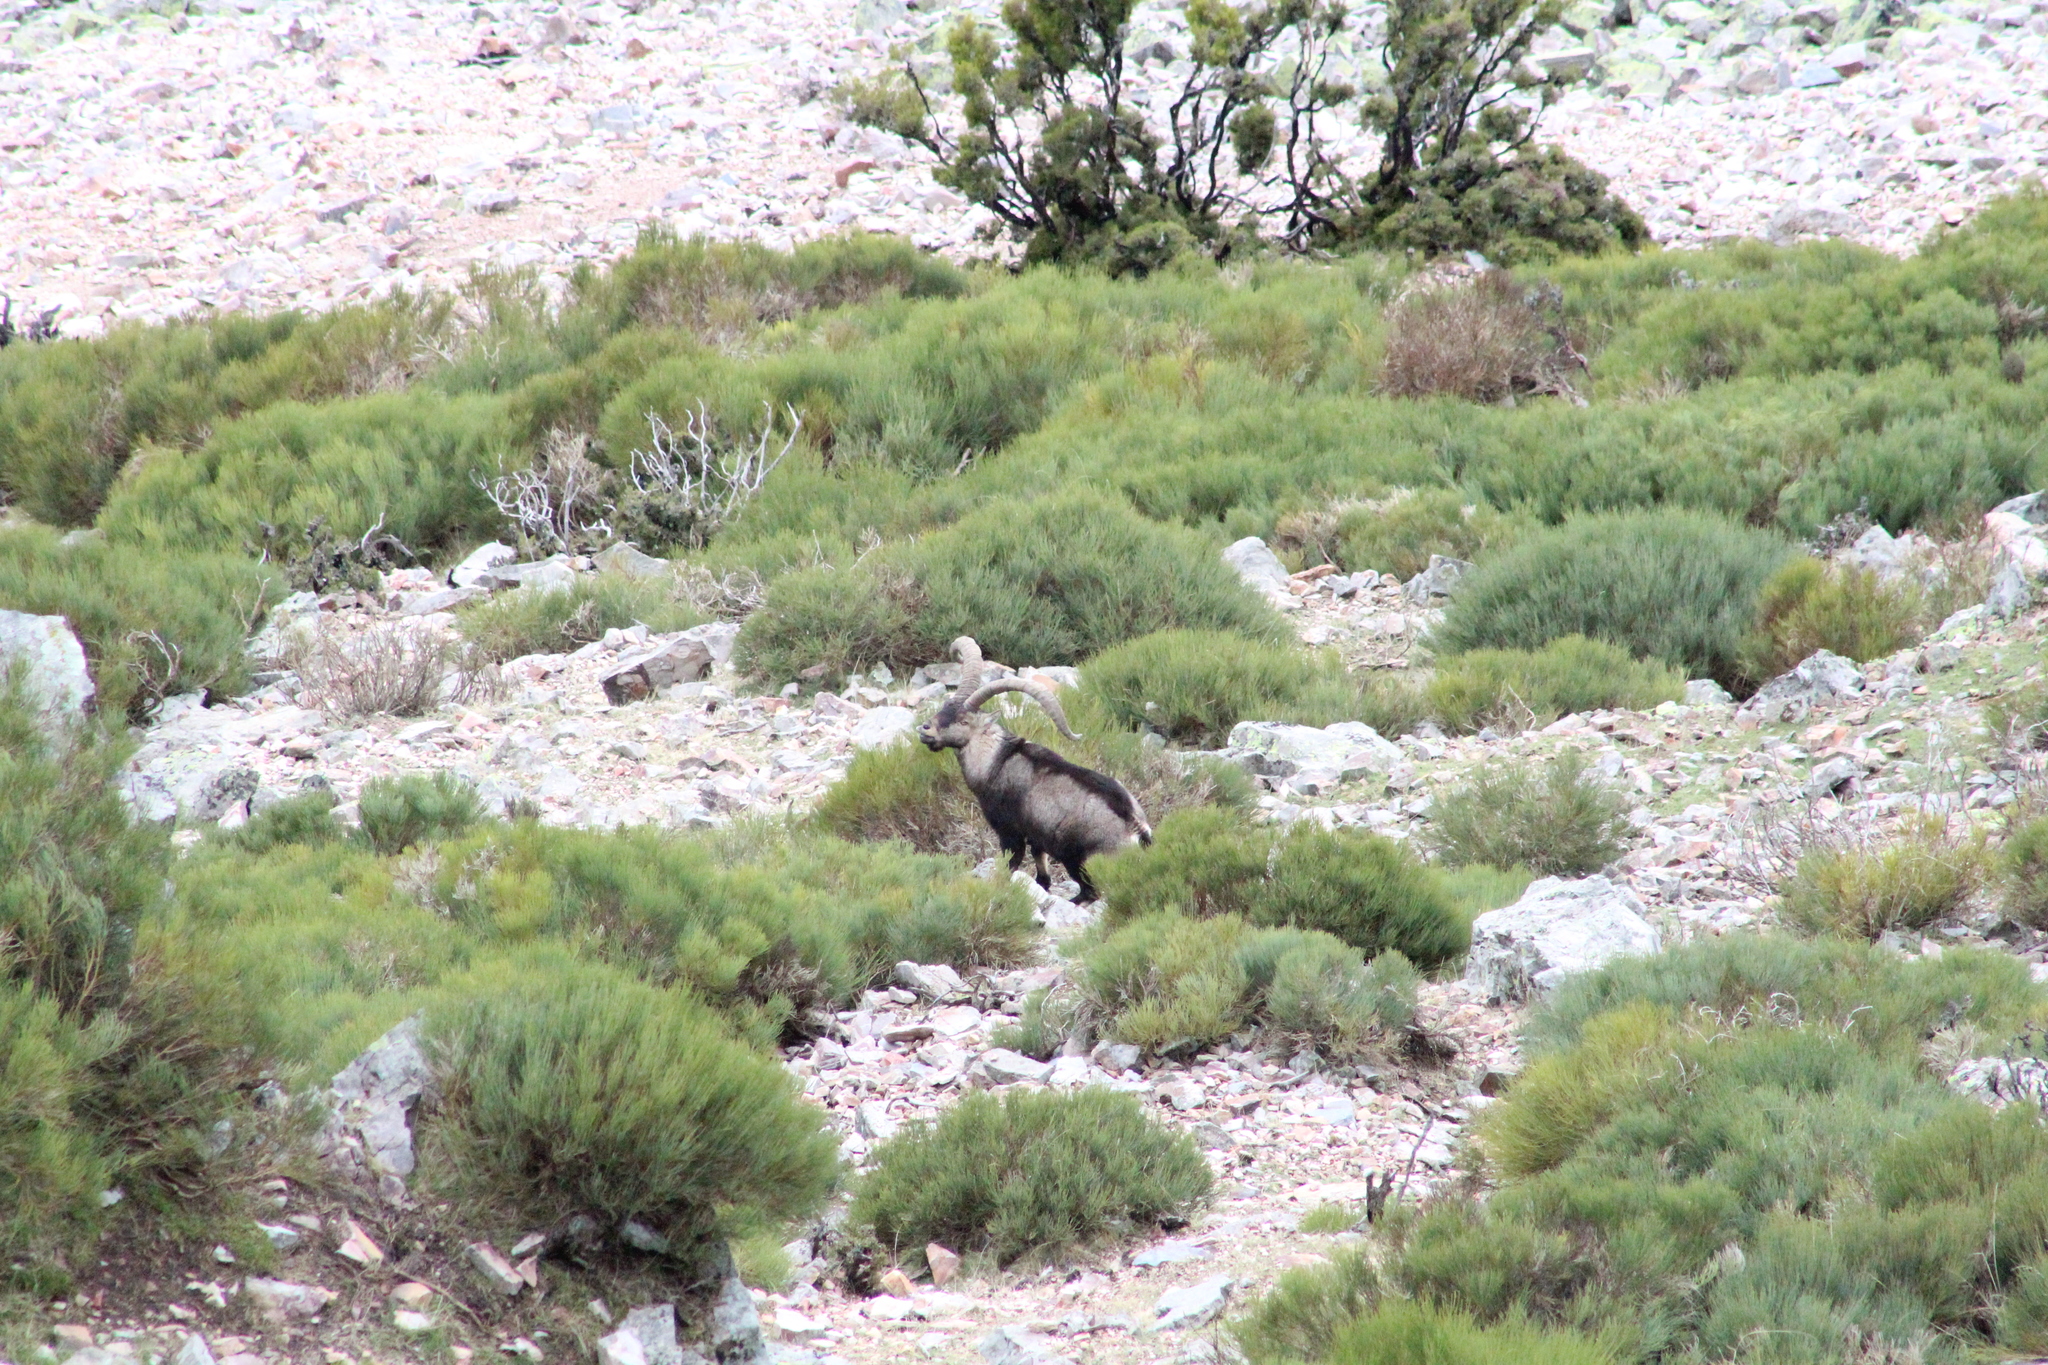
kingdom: Animalia
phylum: Chordata
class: Mammalia
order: Artiodactyla
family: Bovidae
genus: Capra
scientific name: Capra pyrenaica
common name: Spanish ibex
